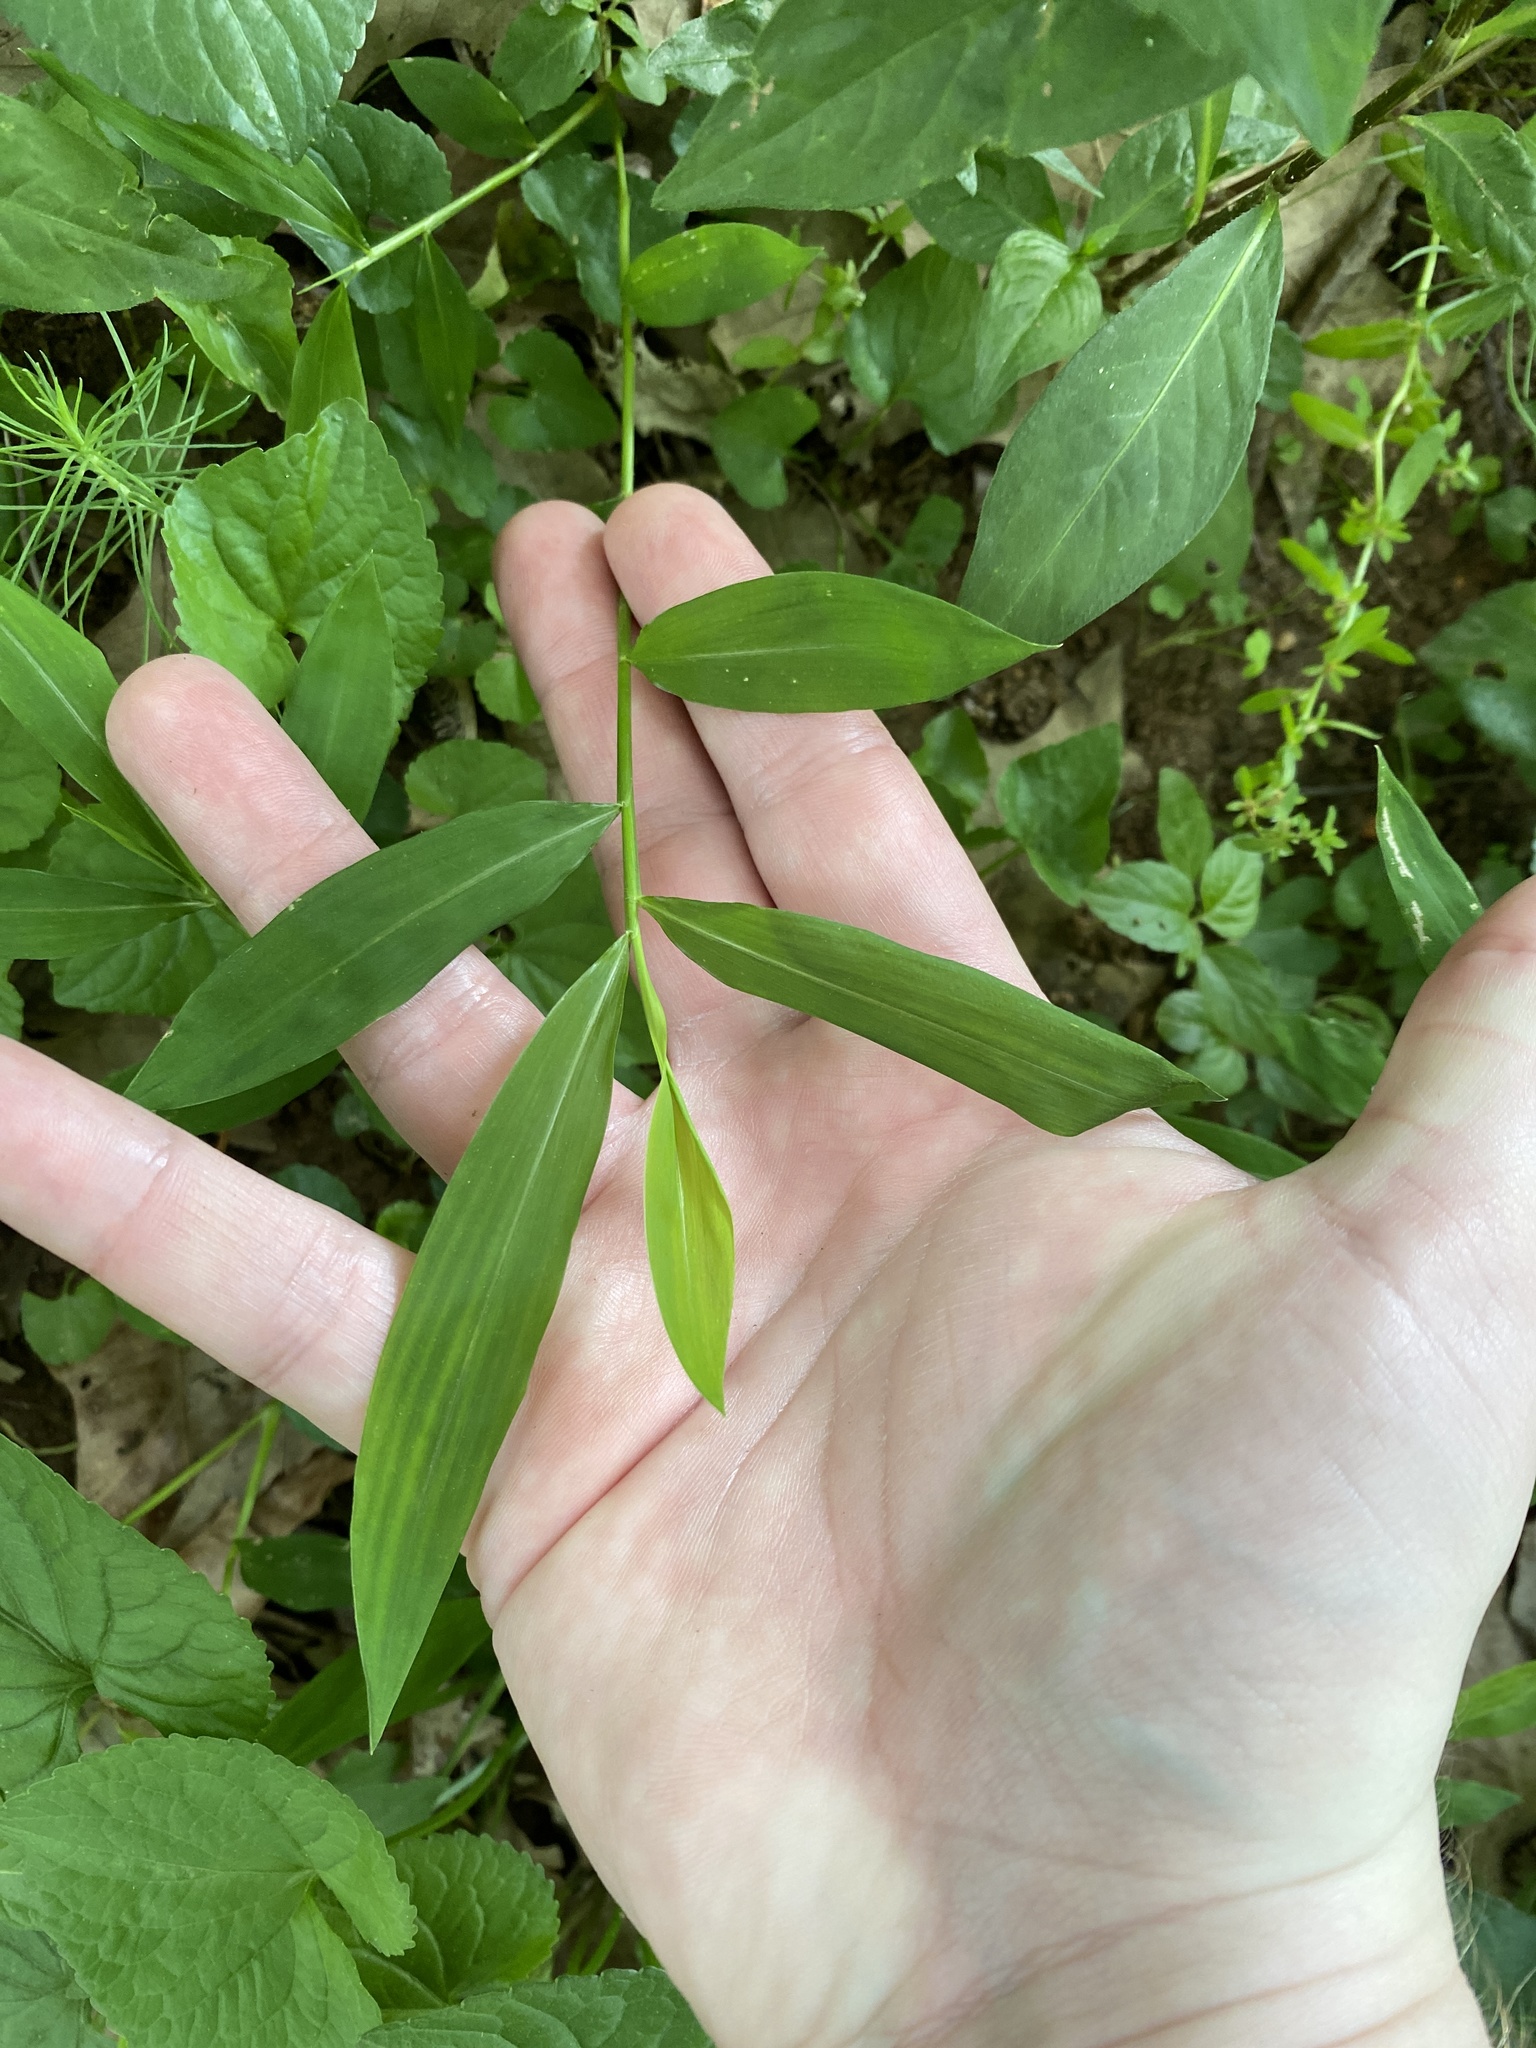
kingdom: Plantae
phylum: Tracheophyta
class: Liliopsida
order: Poales
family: Poaceae
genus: Microstegium
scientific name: Microstegium vimineum
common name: Japanese stiltgrass
